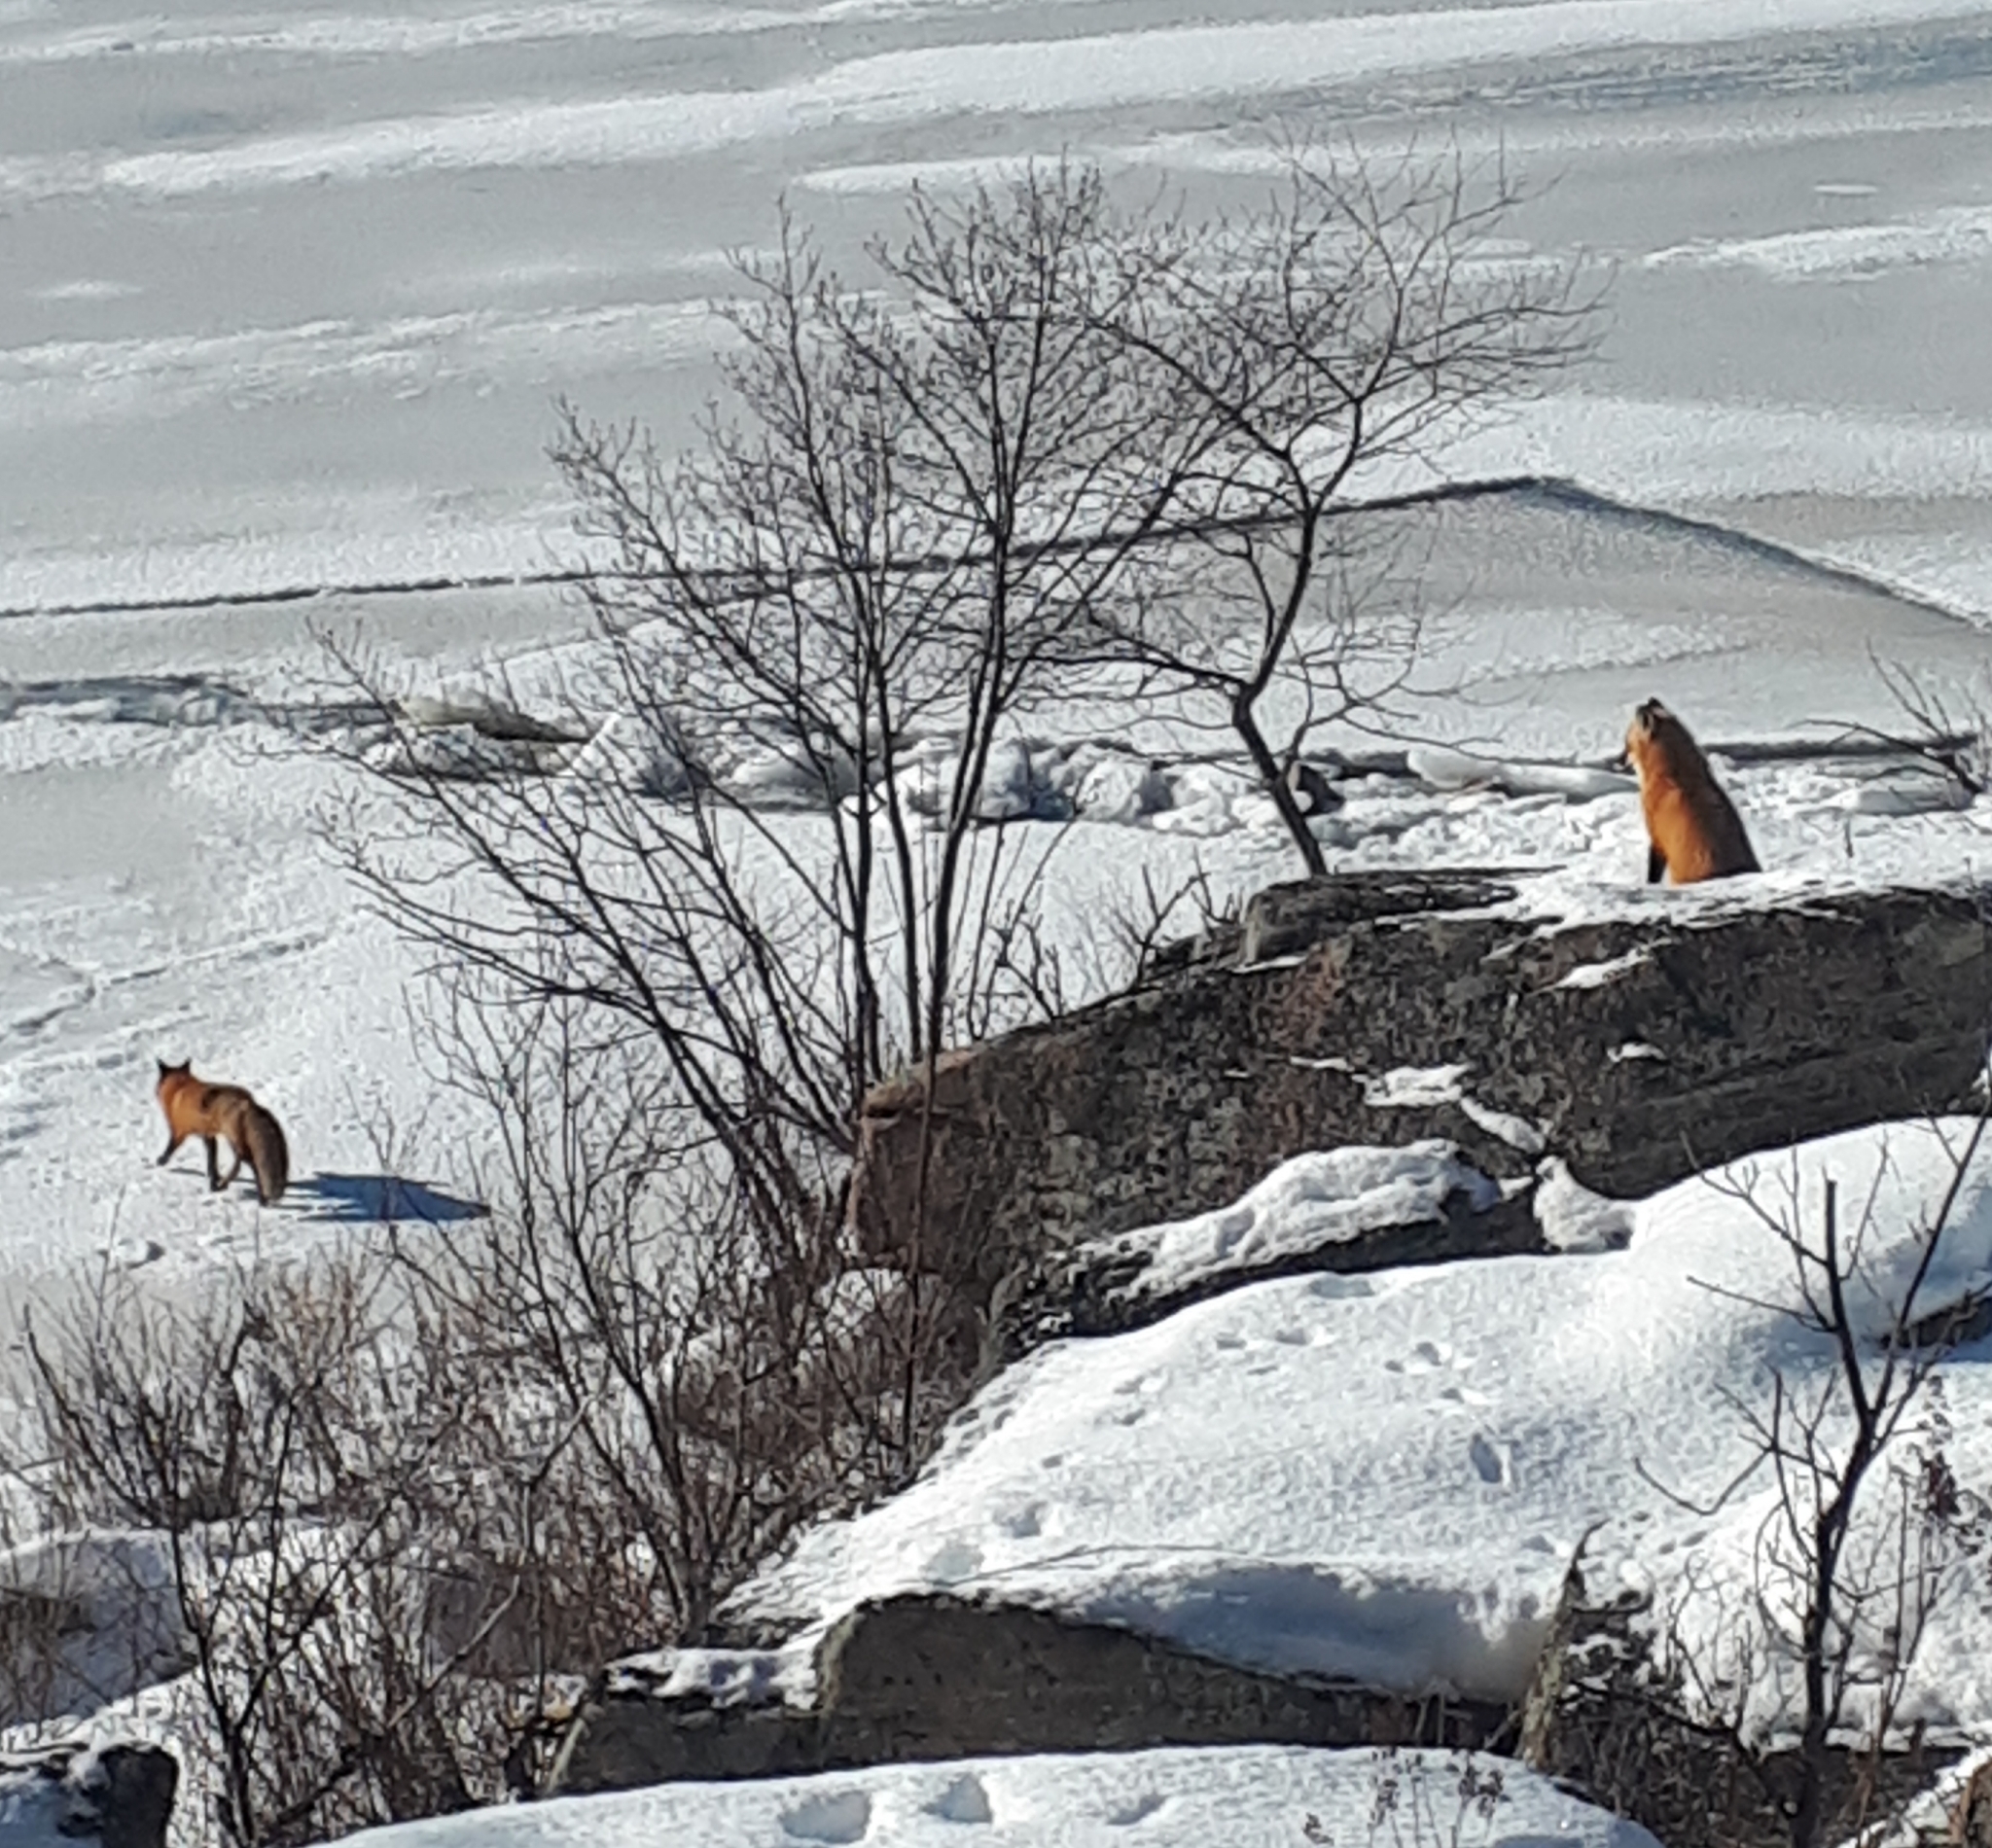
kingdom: Animalia
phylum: Chordata
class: Mammalia
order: Carnivora
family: Canidae
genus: Vulpes
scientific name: Vulpes vulpes
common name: Red fox
